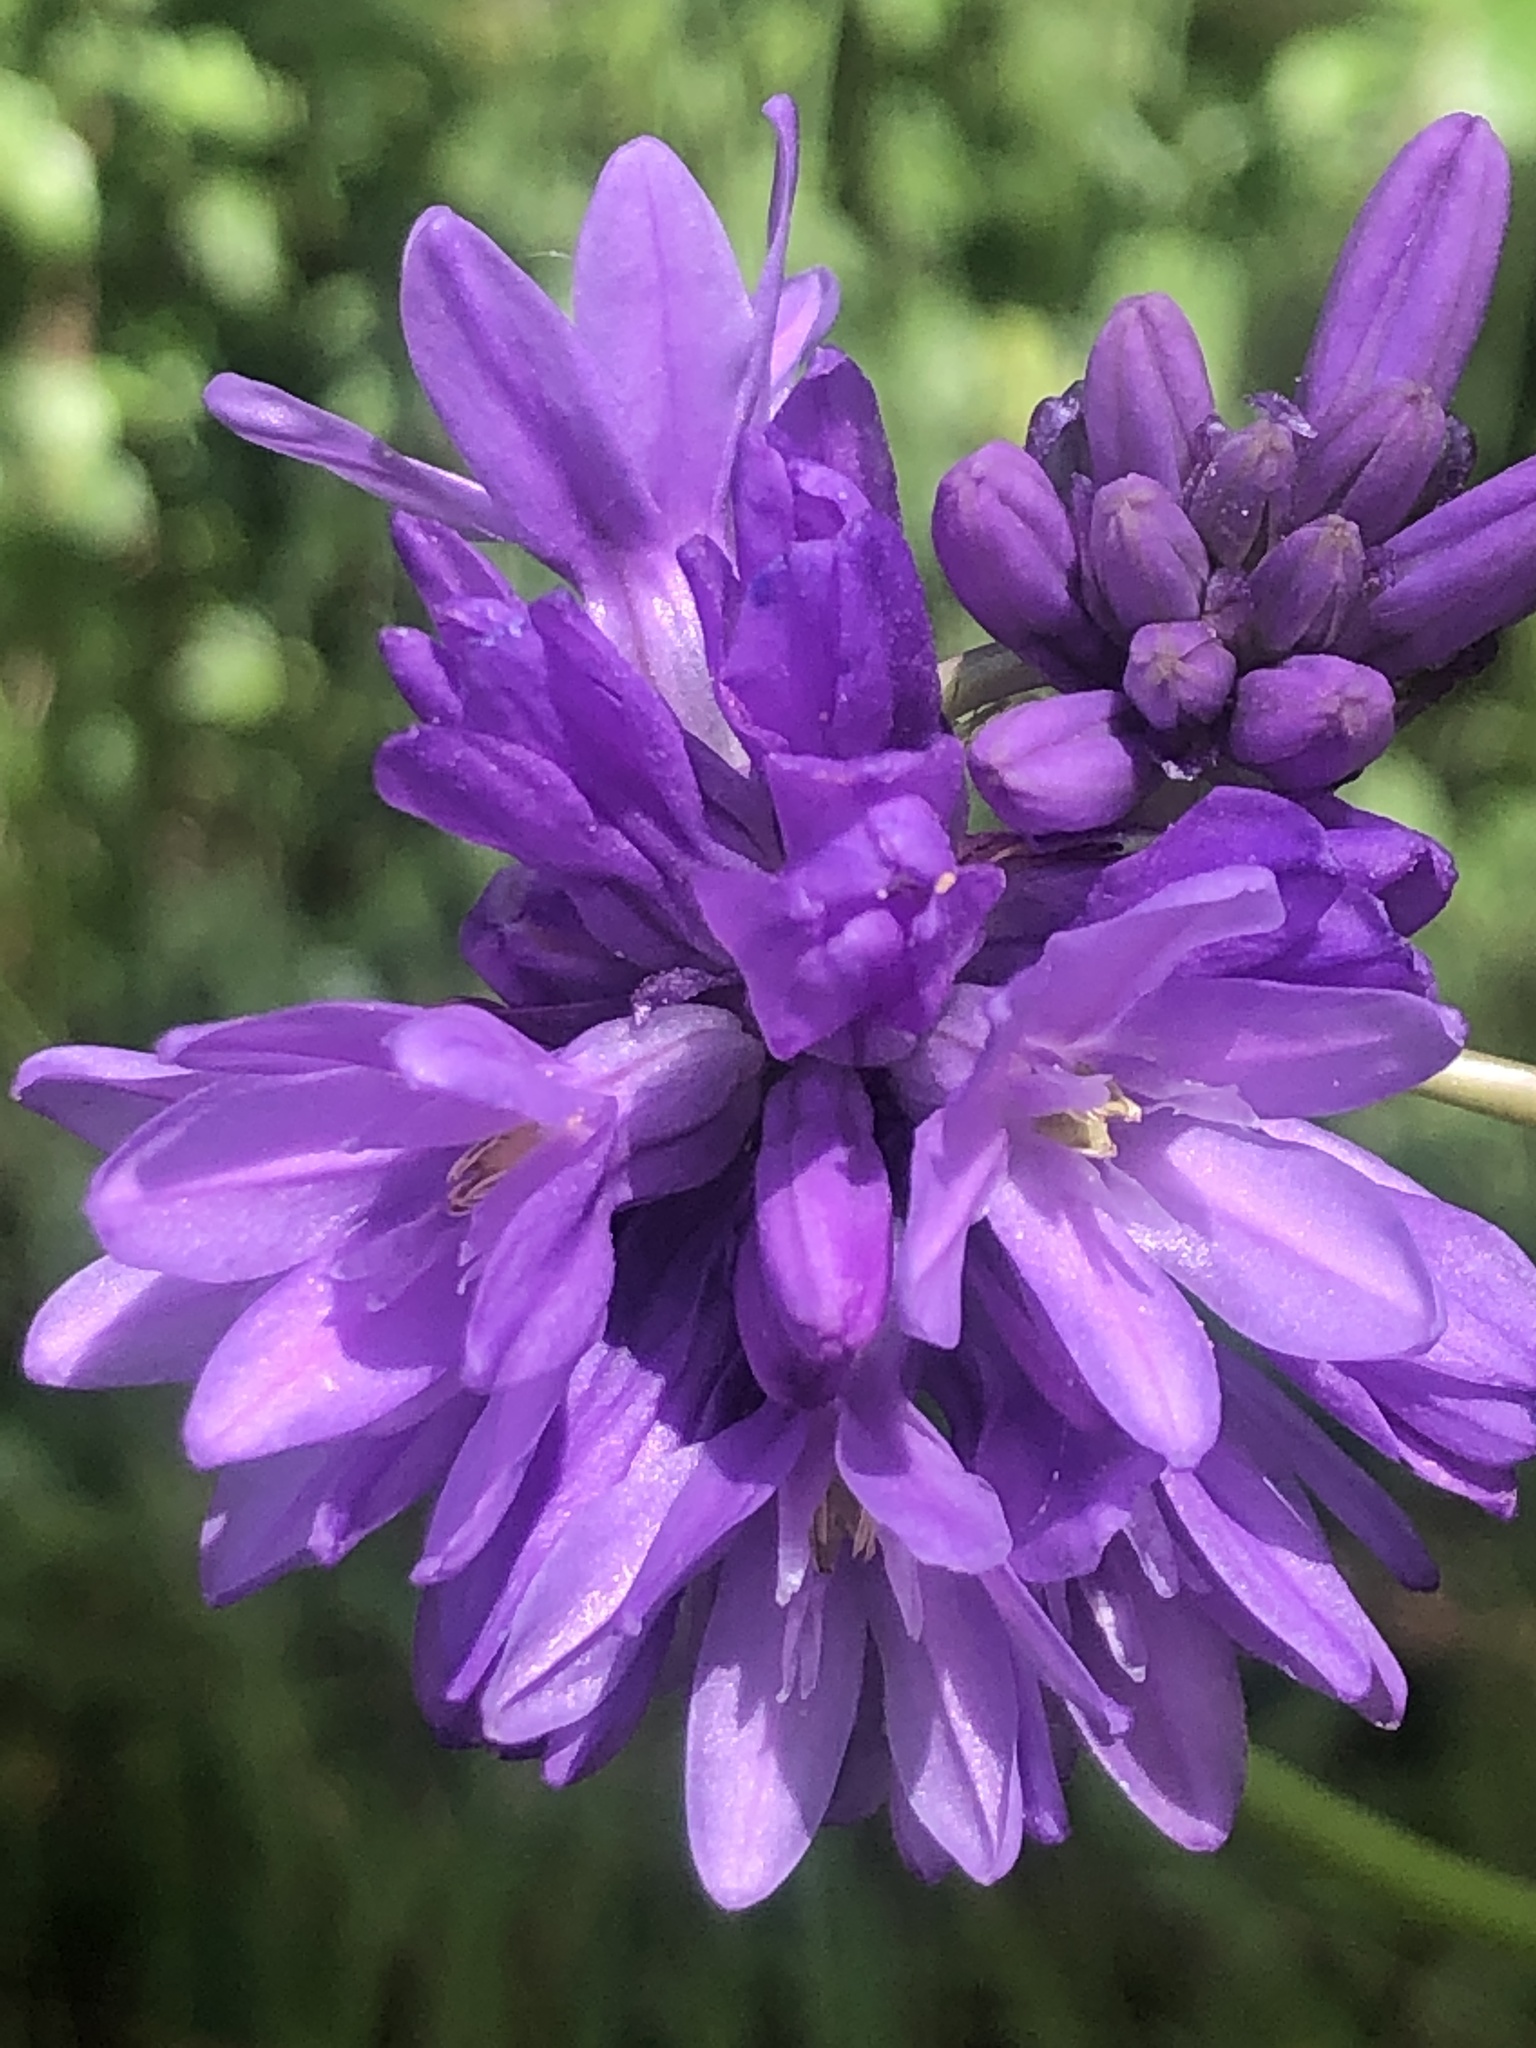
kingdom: Plantae
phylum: Tracheophyta
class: Liliopsida
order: Asparagales
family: Asparagaceae
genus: Dichelostemma
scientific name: Dichelostemma congestum
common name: Fork-tooth ookow
